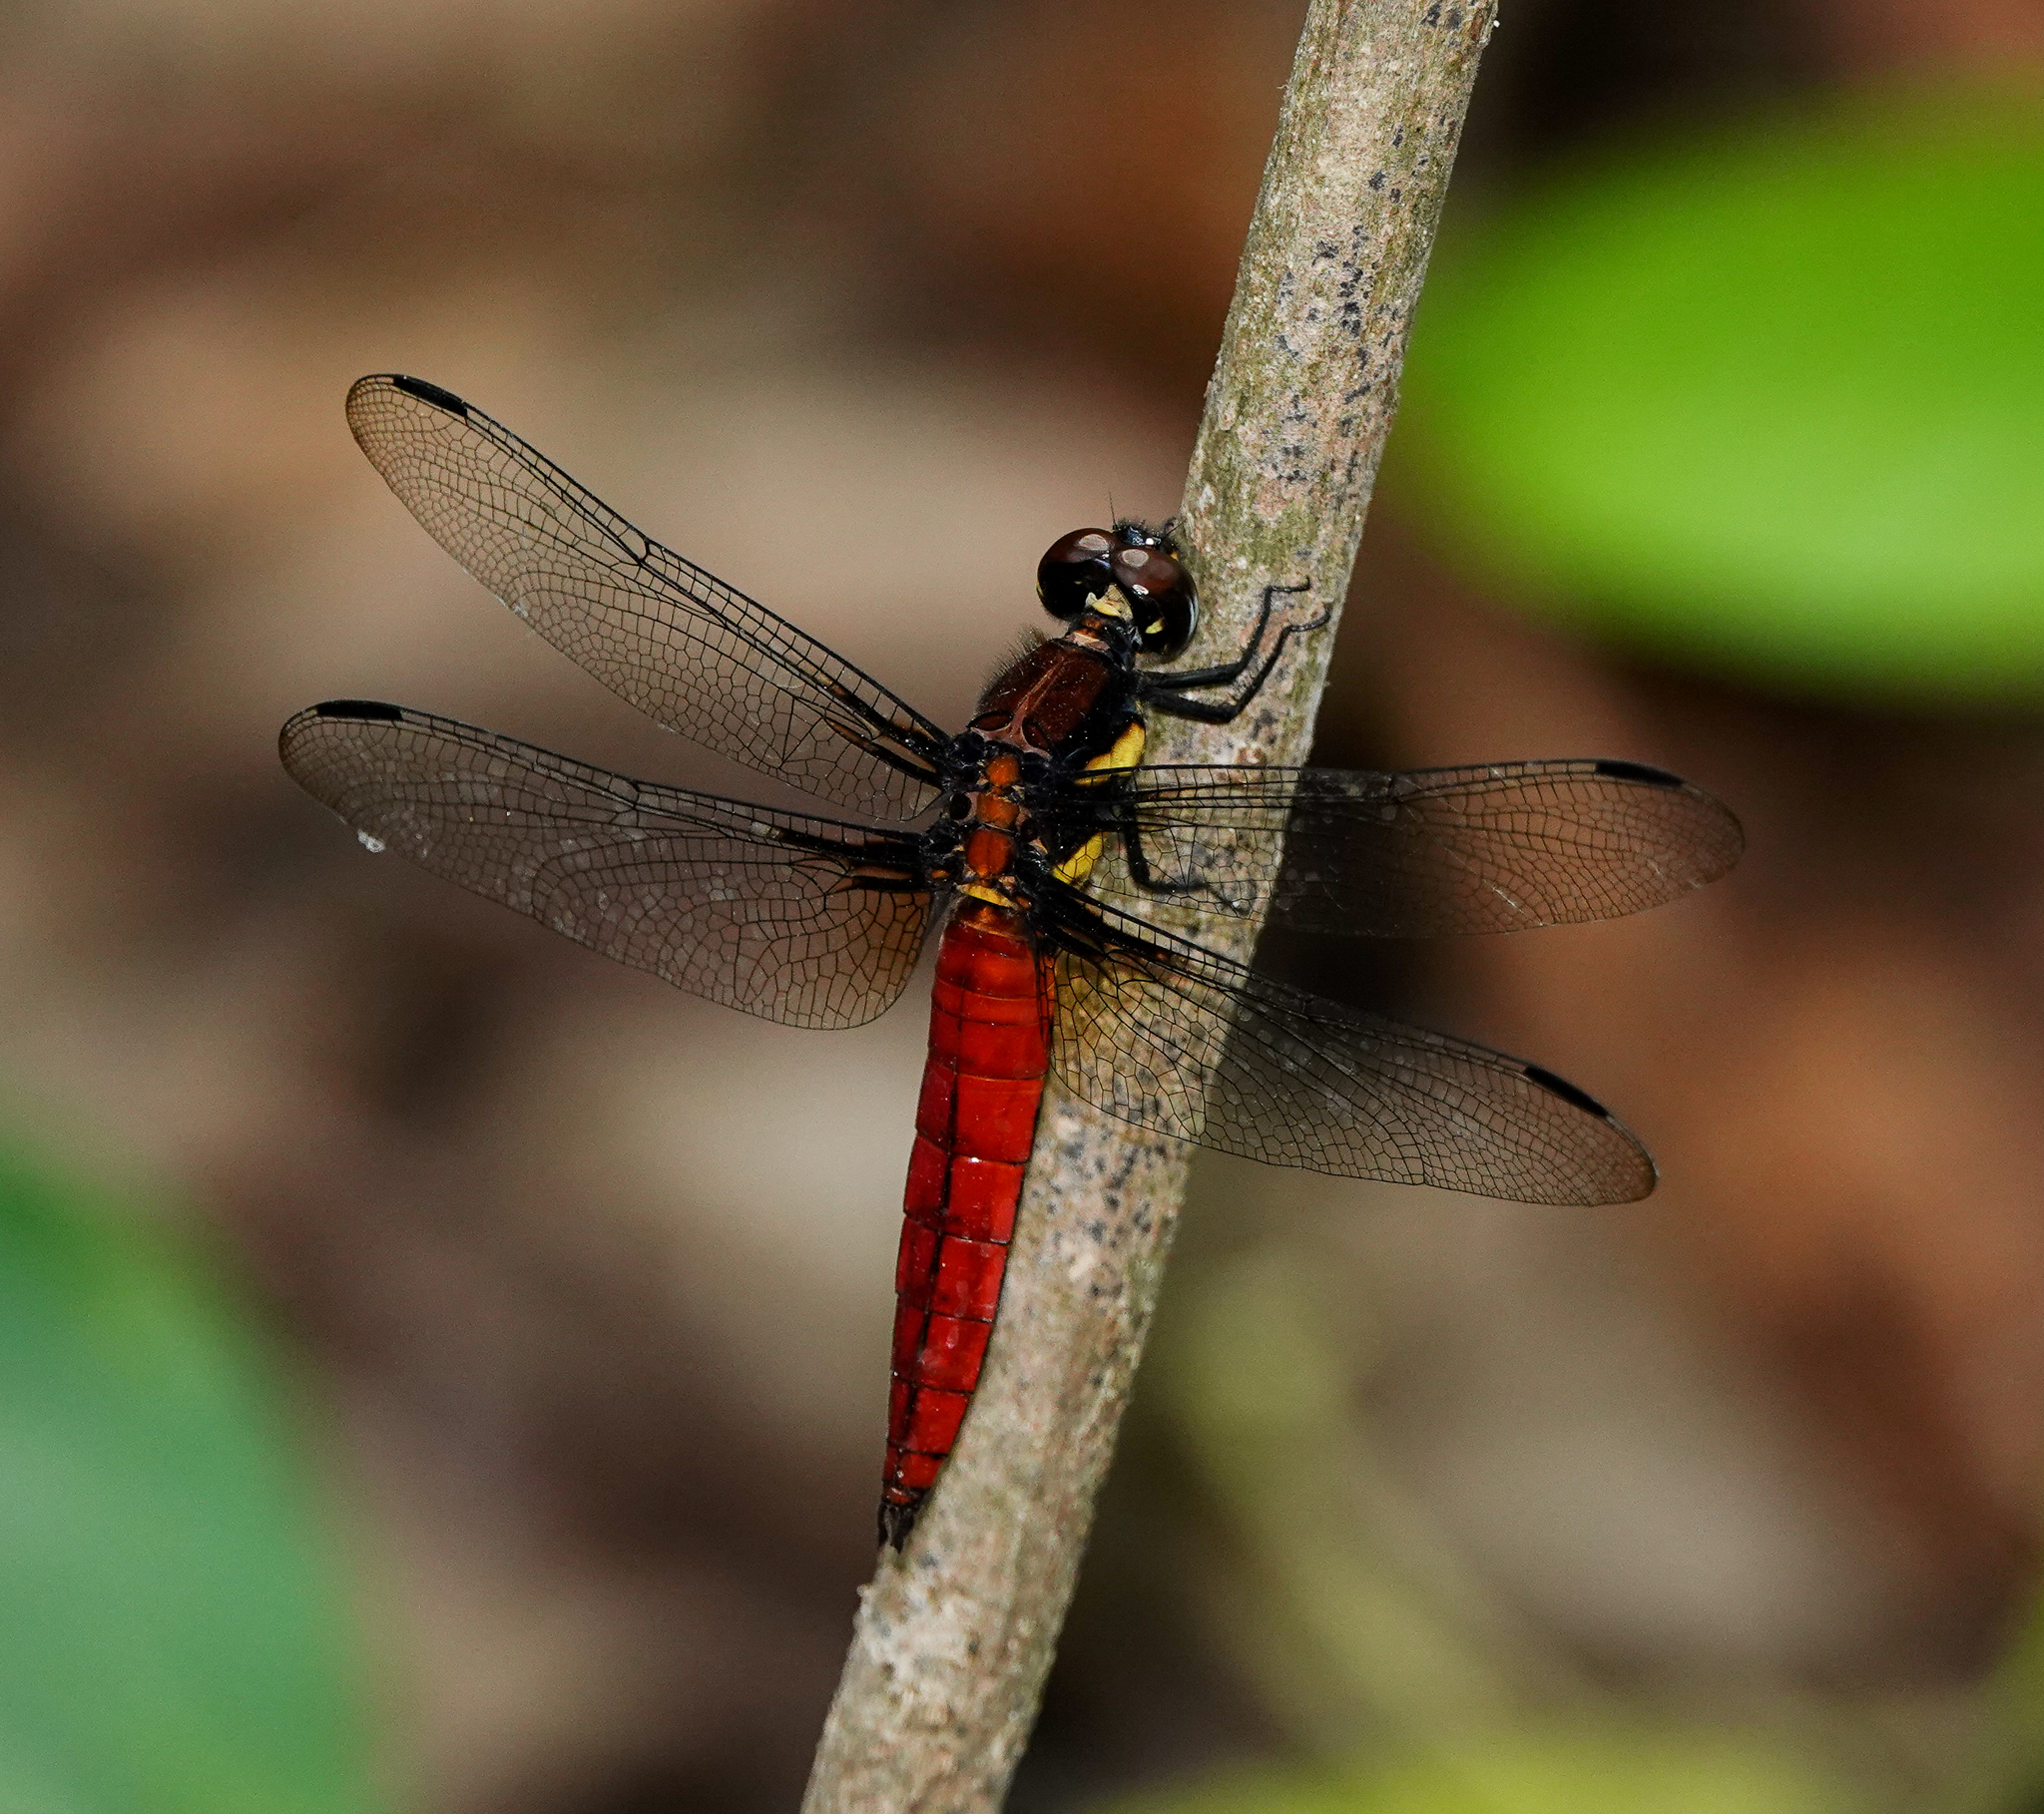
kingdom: Animalia
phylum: Arthropoda
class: Insecta
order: Odonata
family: Libellulidae
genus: Lyriothemis
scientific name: Lyriothemis bivittata
